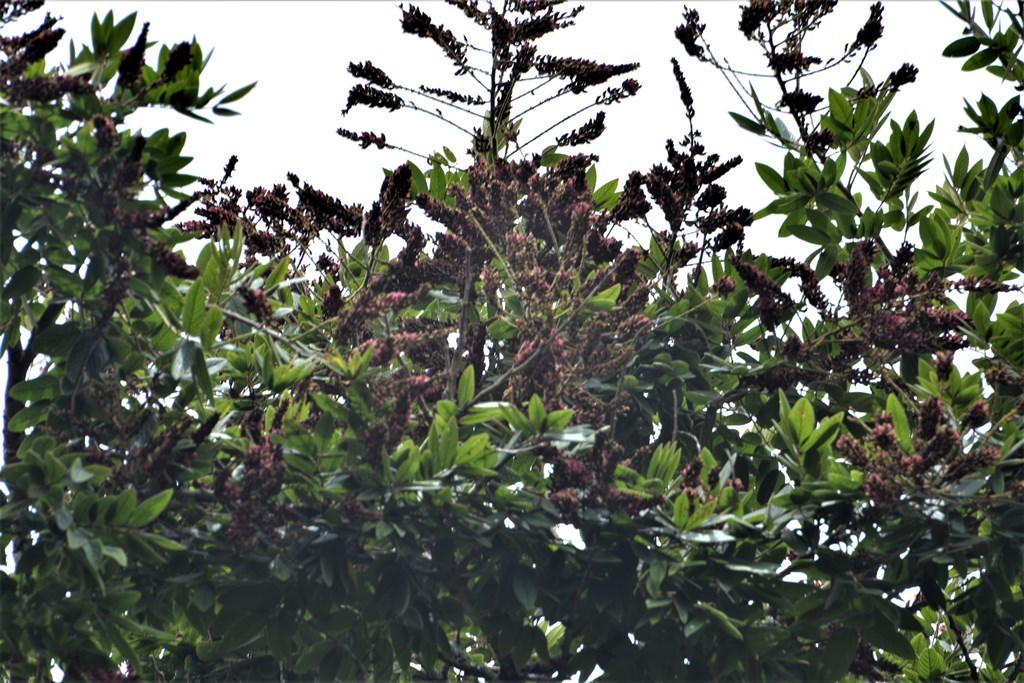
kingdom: Plantae
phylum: Tracheophyta
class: Magnoliopsida
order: Fabales
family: Fabaceae
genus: Lonchocarpus
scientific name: Lonchocarpus rugosus
